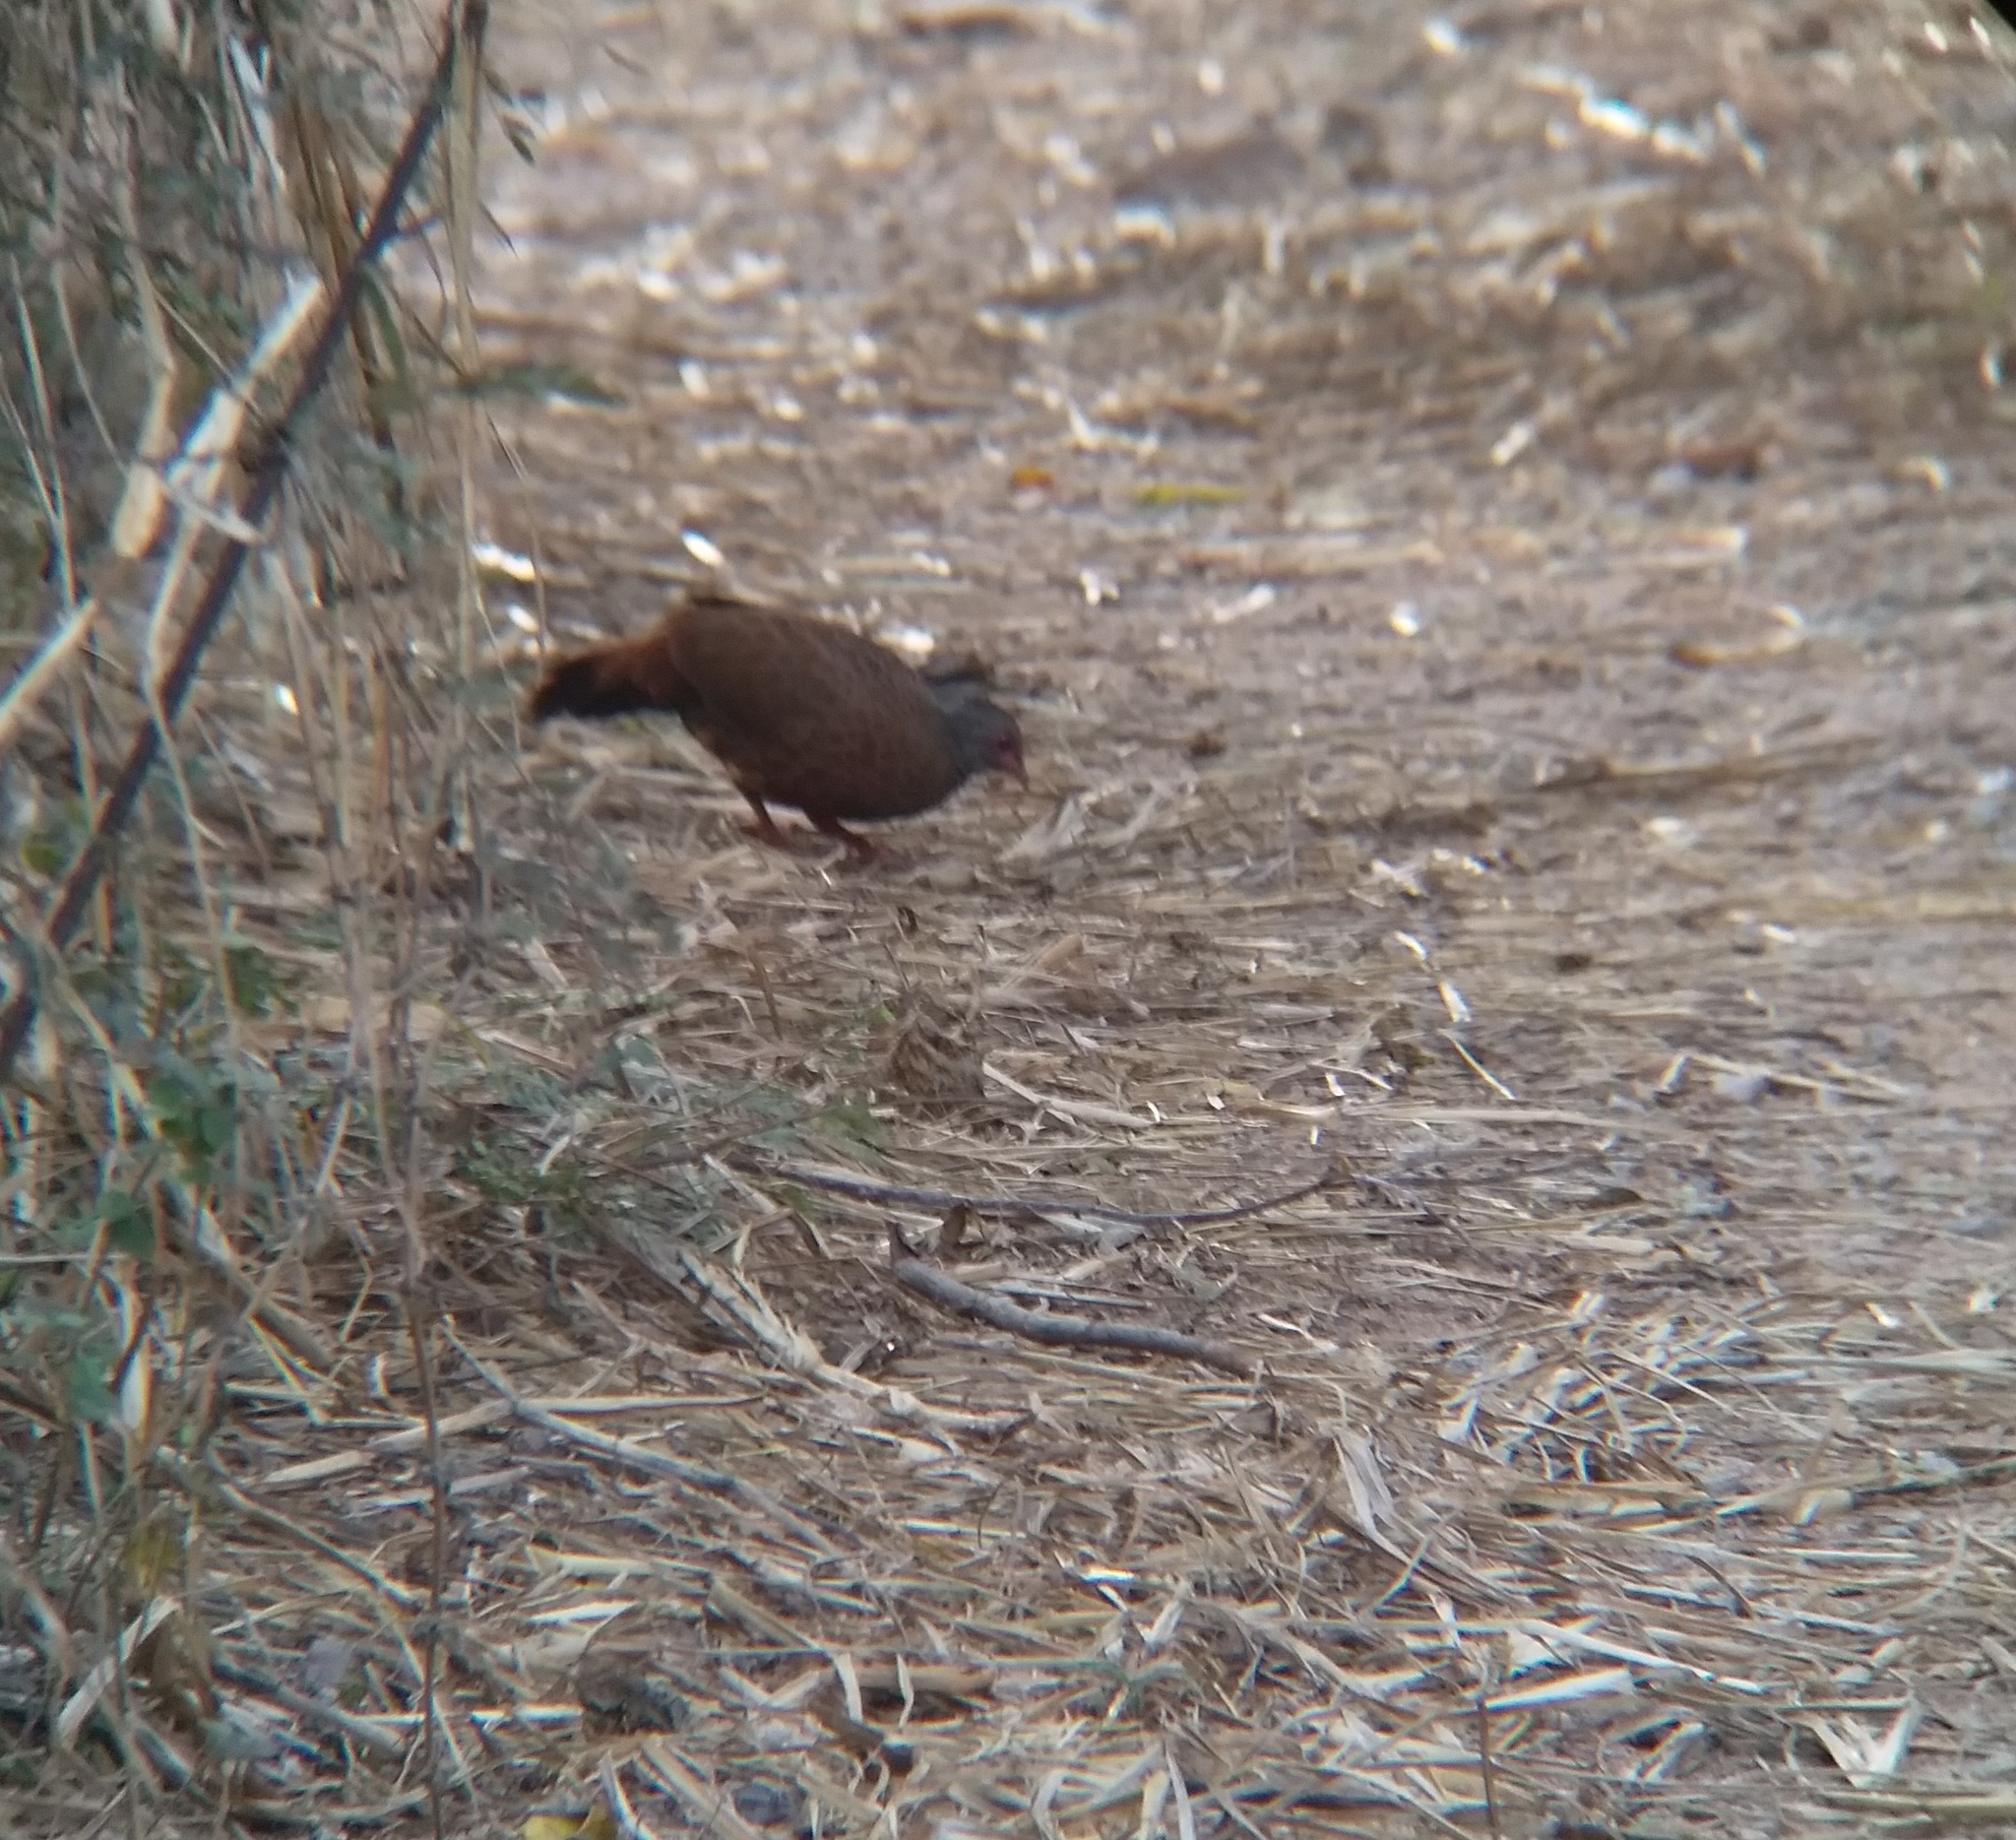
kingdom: Animalia
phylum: Chordata
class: Aves
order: Galliformes
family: Phasianidae
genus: Galloperdix
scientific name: Galloperdix spadicea
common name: Red spurfowl
